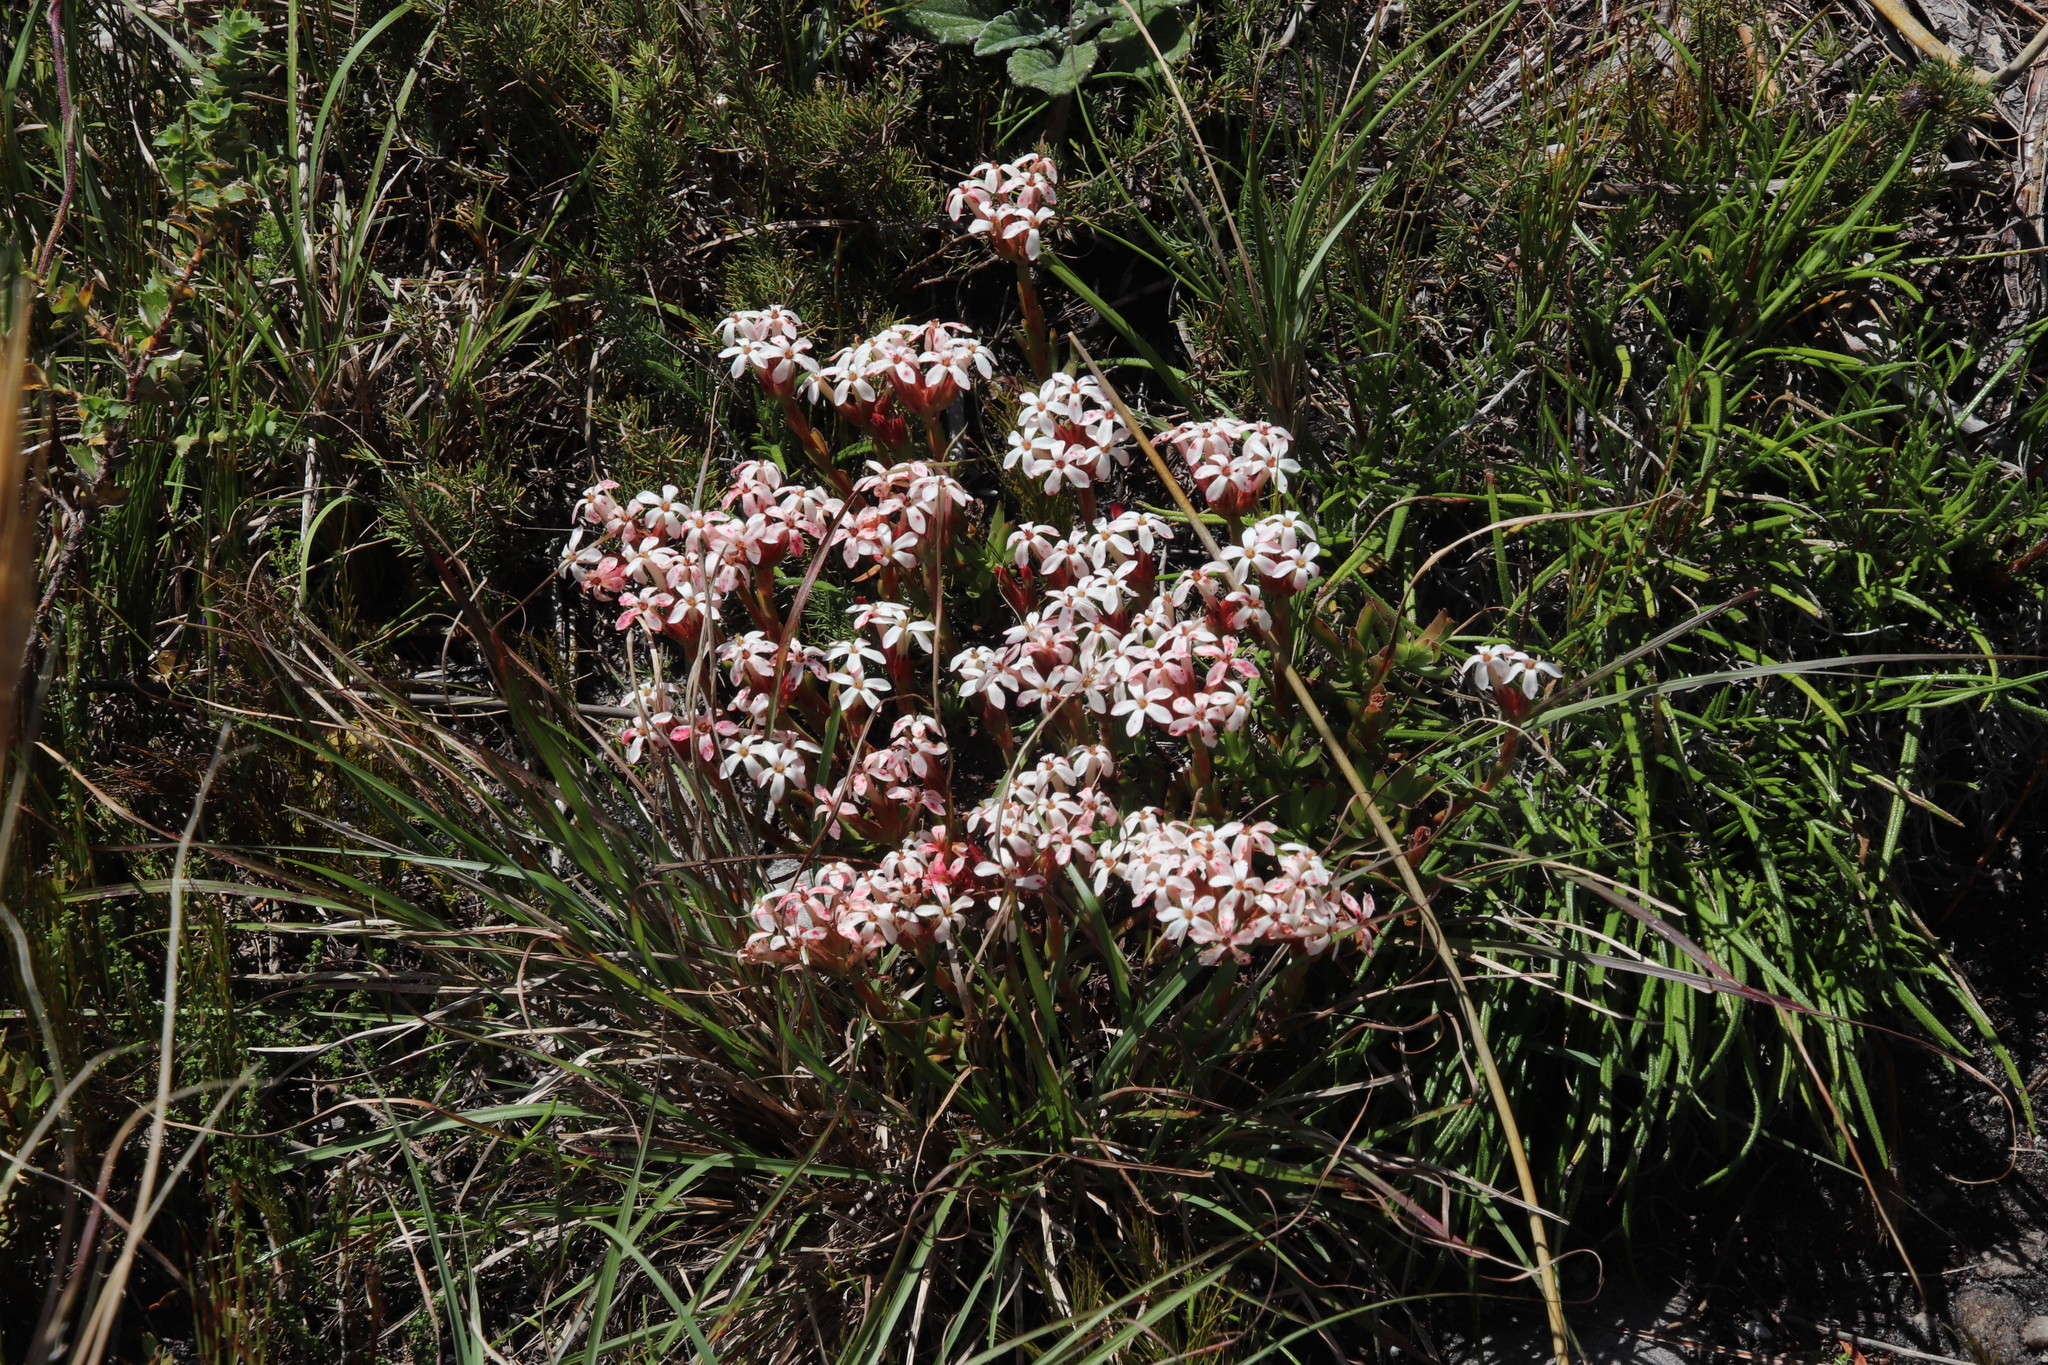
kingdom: Plantae
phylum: Tracheophyta
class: Magnoliopsida
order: Saxifragales
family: Crassulaceae
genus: Crassula
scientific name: Crassula fascicularis
